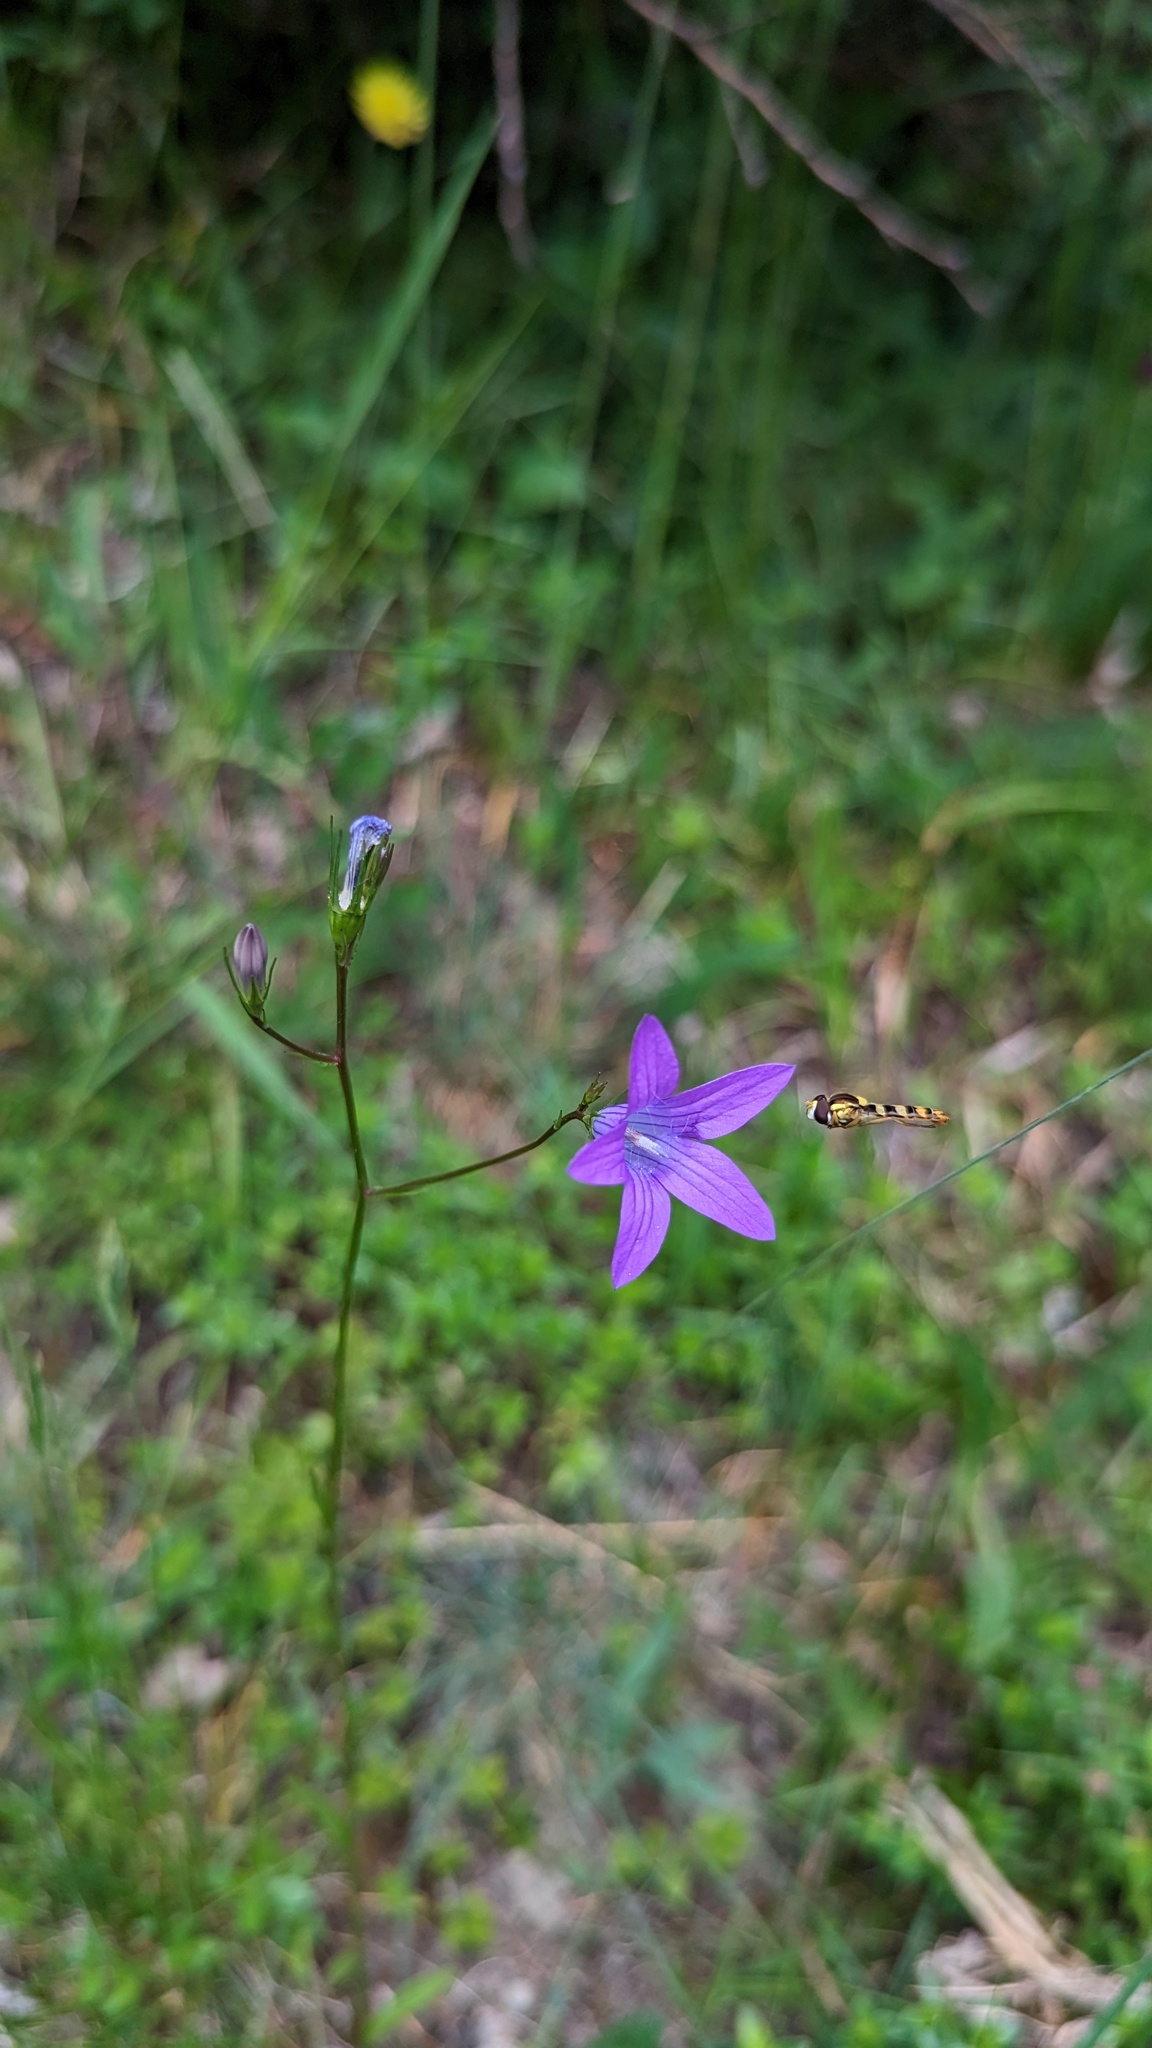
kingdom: Plantae
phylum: Tracheophyta
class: Magnoliopsida
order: Asterales
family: Campanulaceae
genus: Campanula
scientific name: Campanula patula
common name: Spreading bellflower
